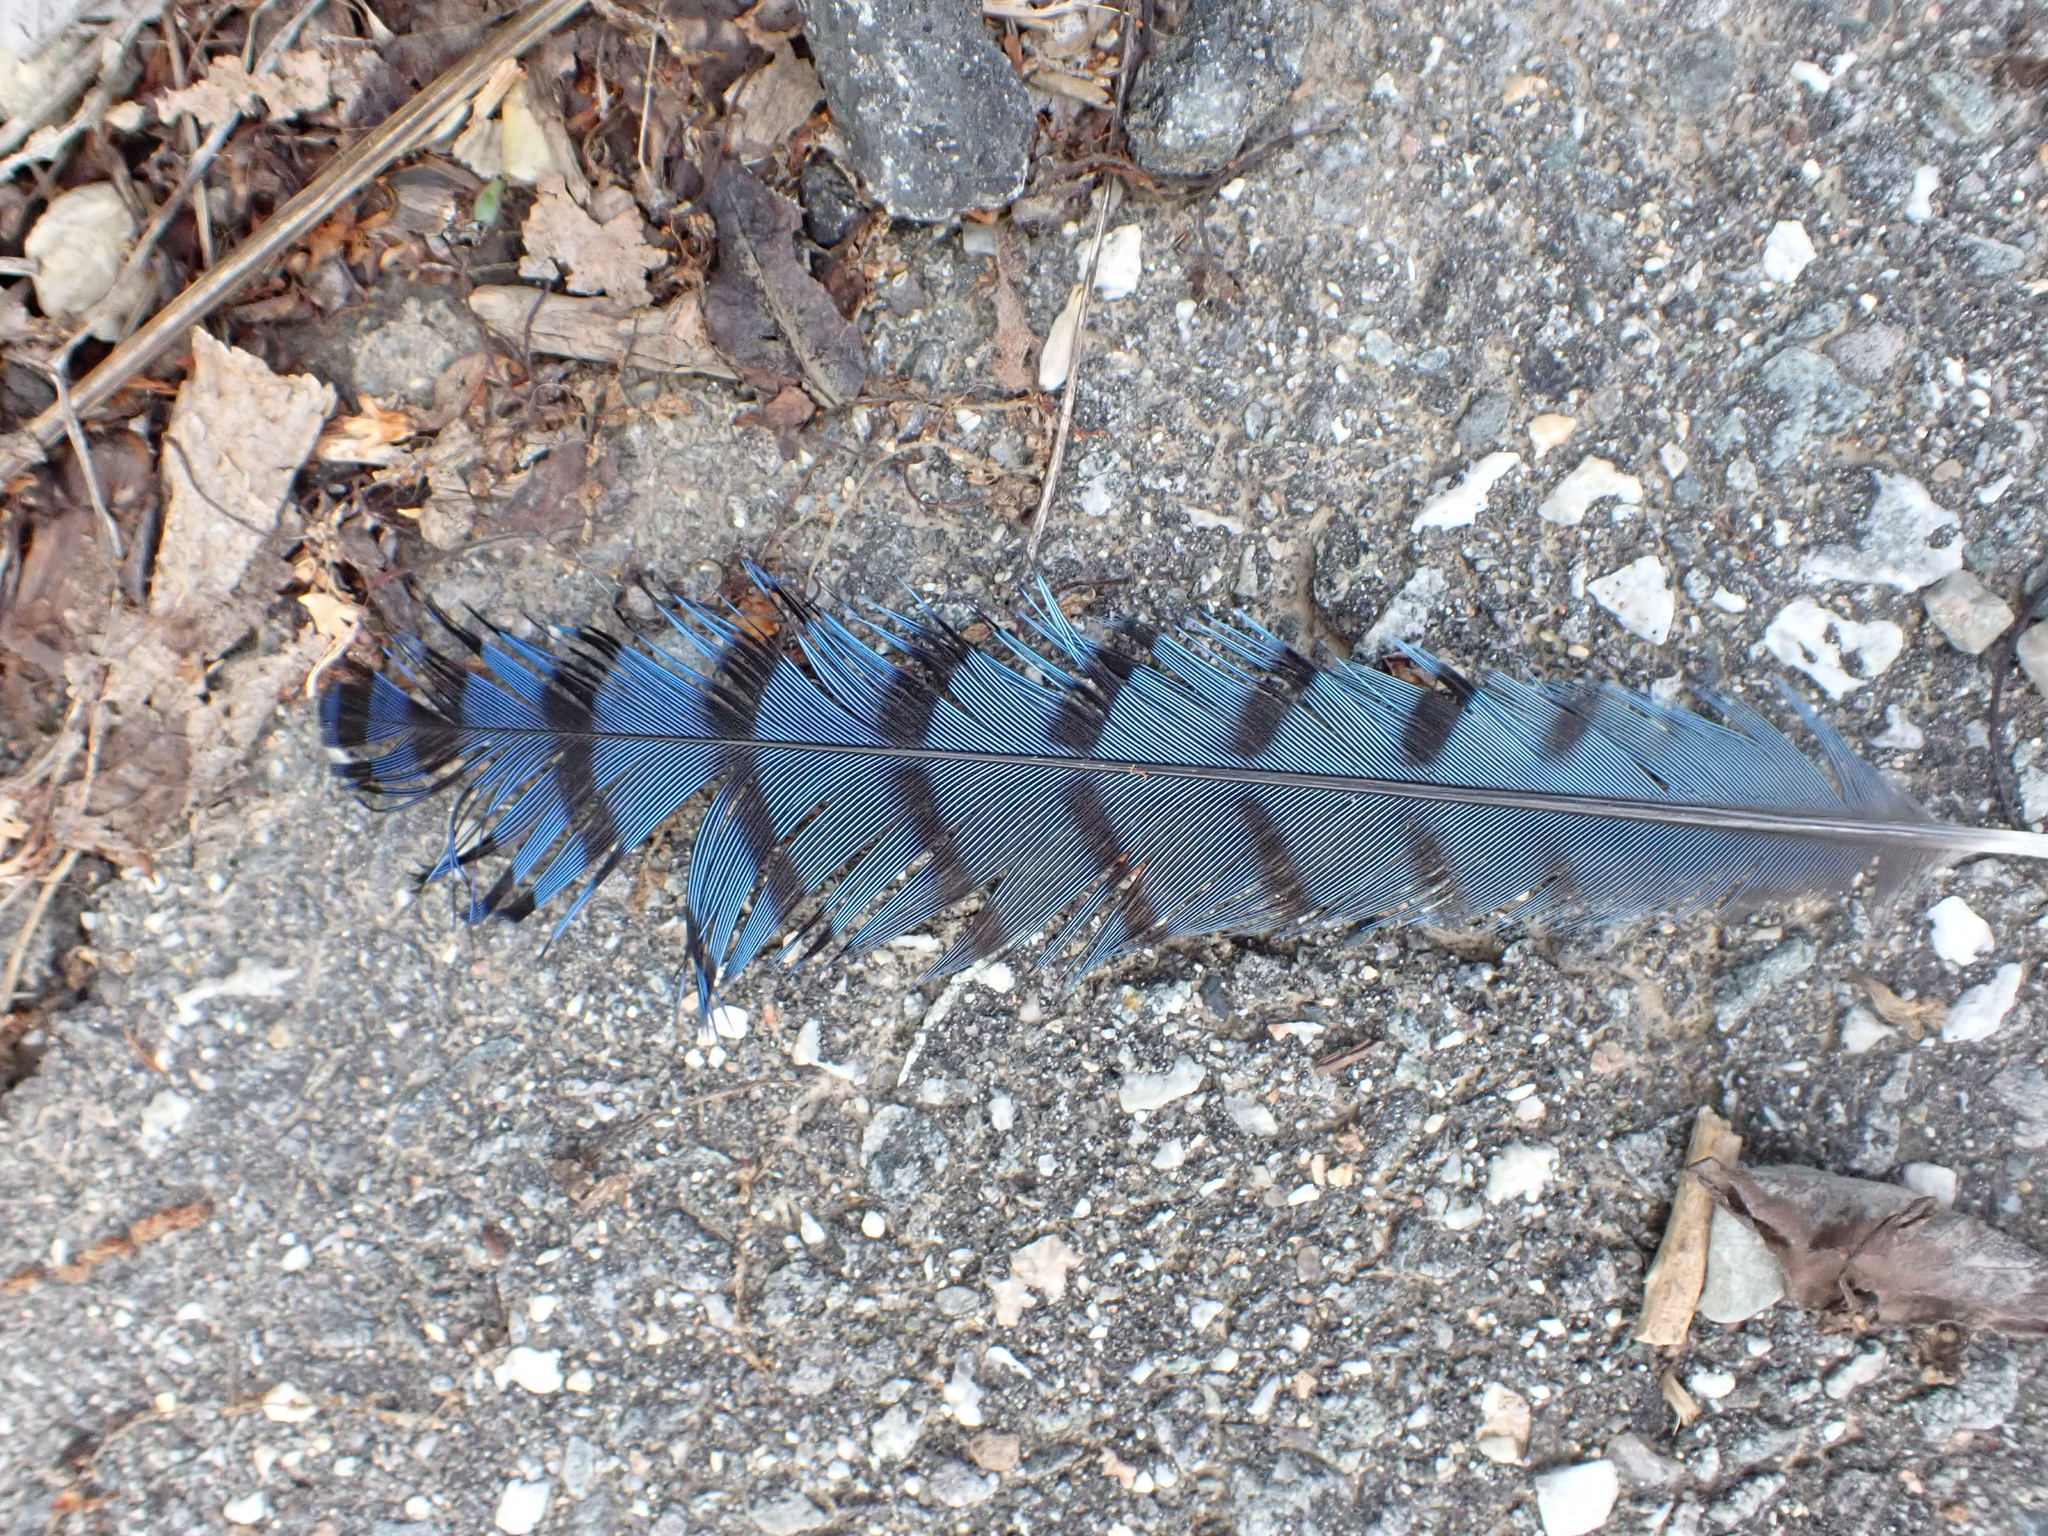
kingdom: Animalia
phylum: Chordata
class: Aves
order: Passeriformes
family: Corvidae
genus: Cyanocitta
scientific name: Cyanocitta cristata
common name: Blue jay
